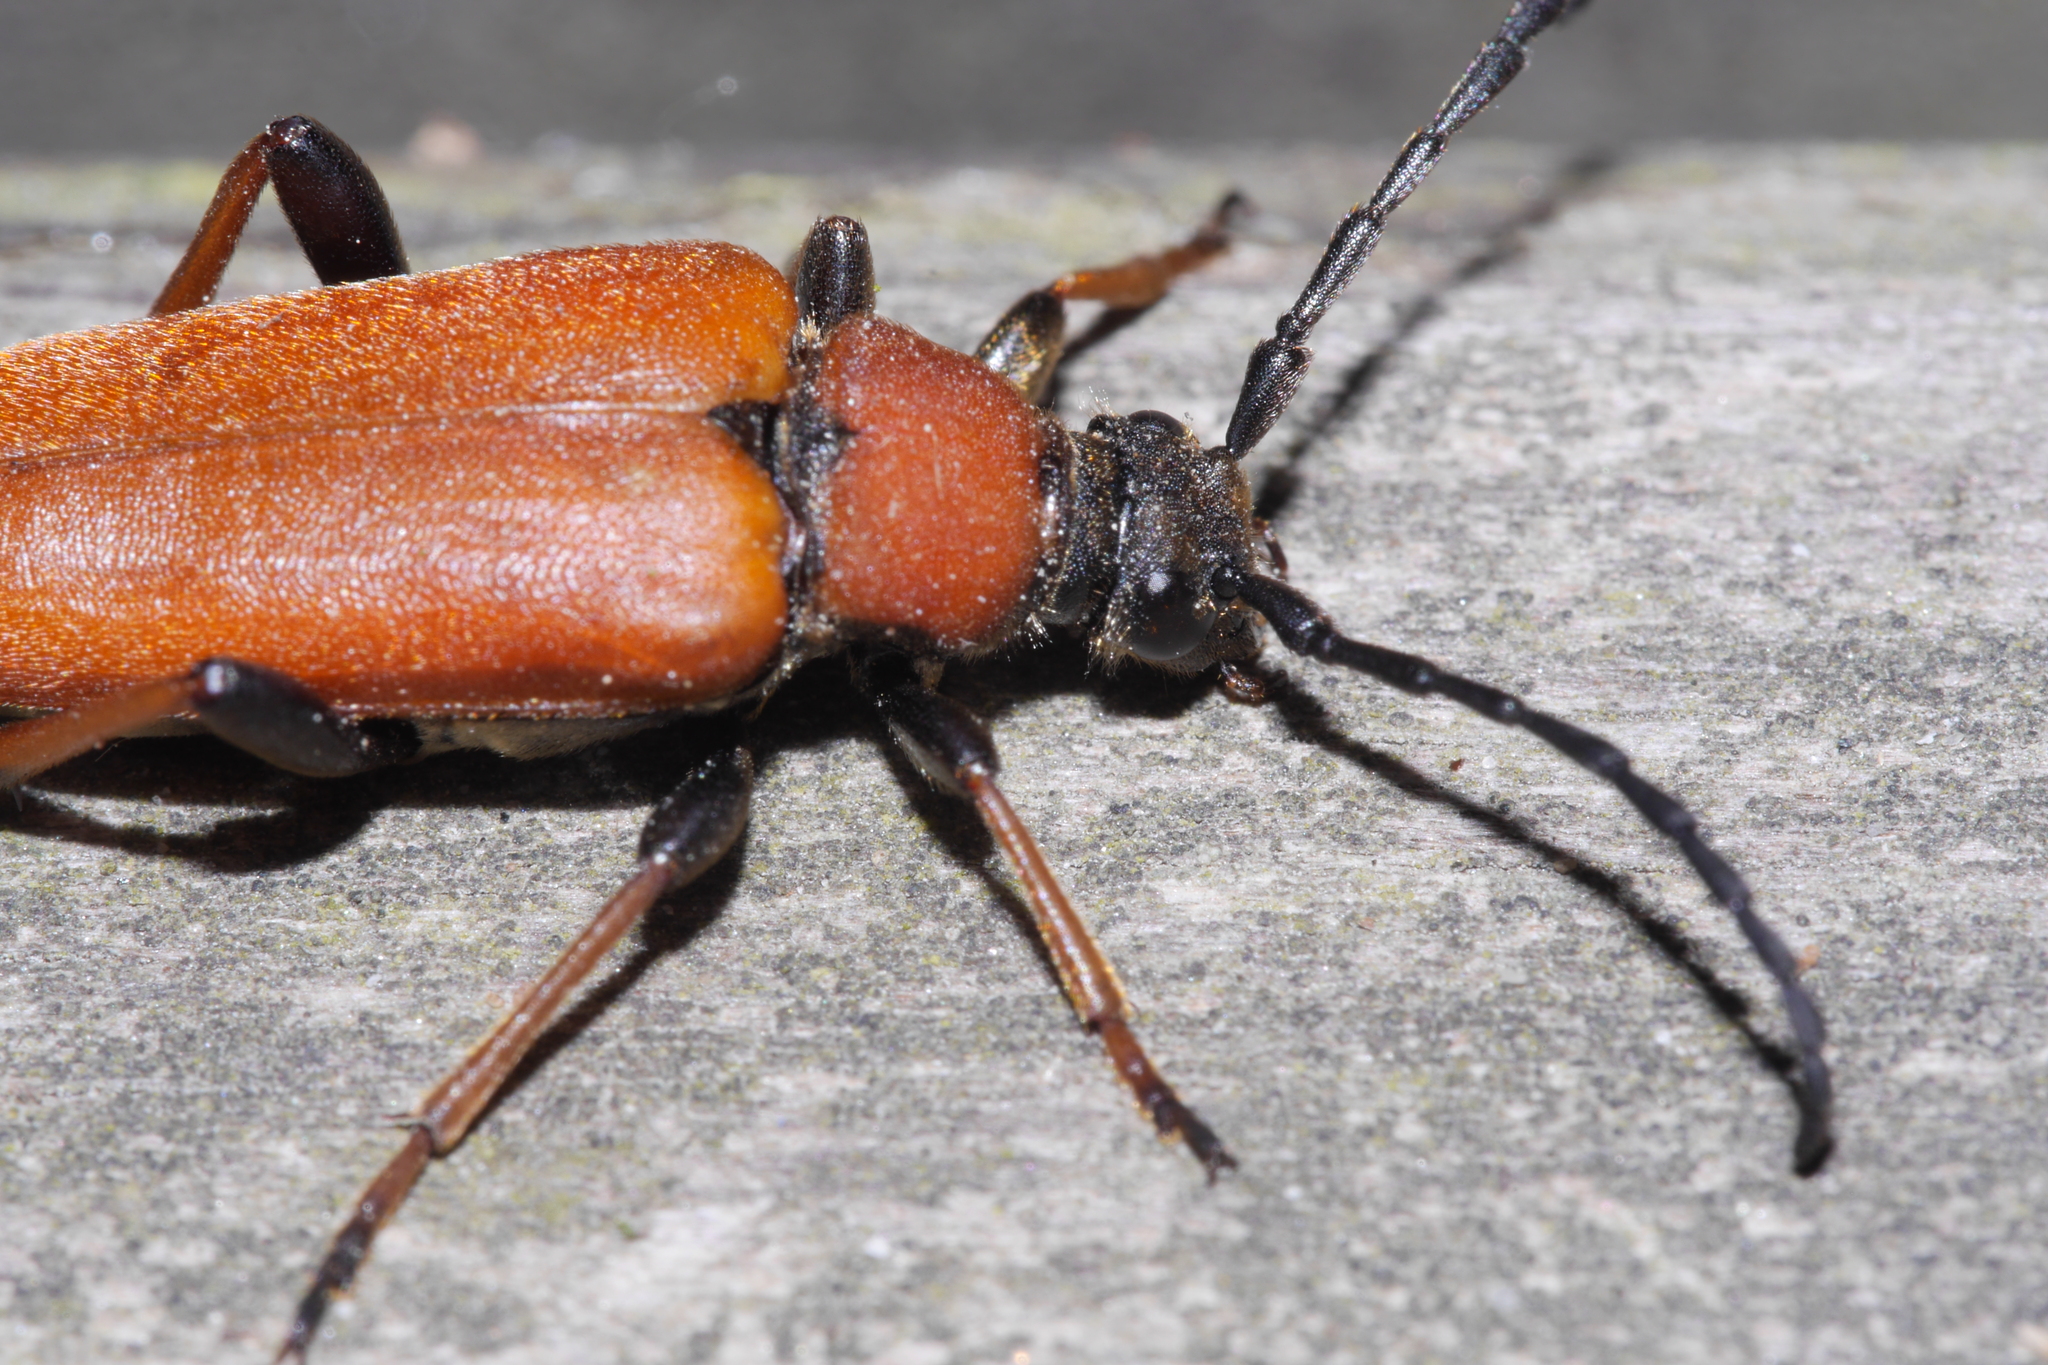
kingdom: Animalia
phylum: Arthropoda
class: Insecta
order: Coleoptera
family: Cerambycidae
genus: Stictoleptura
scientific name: Stictoleptura rubra
